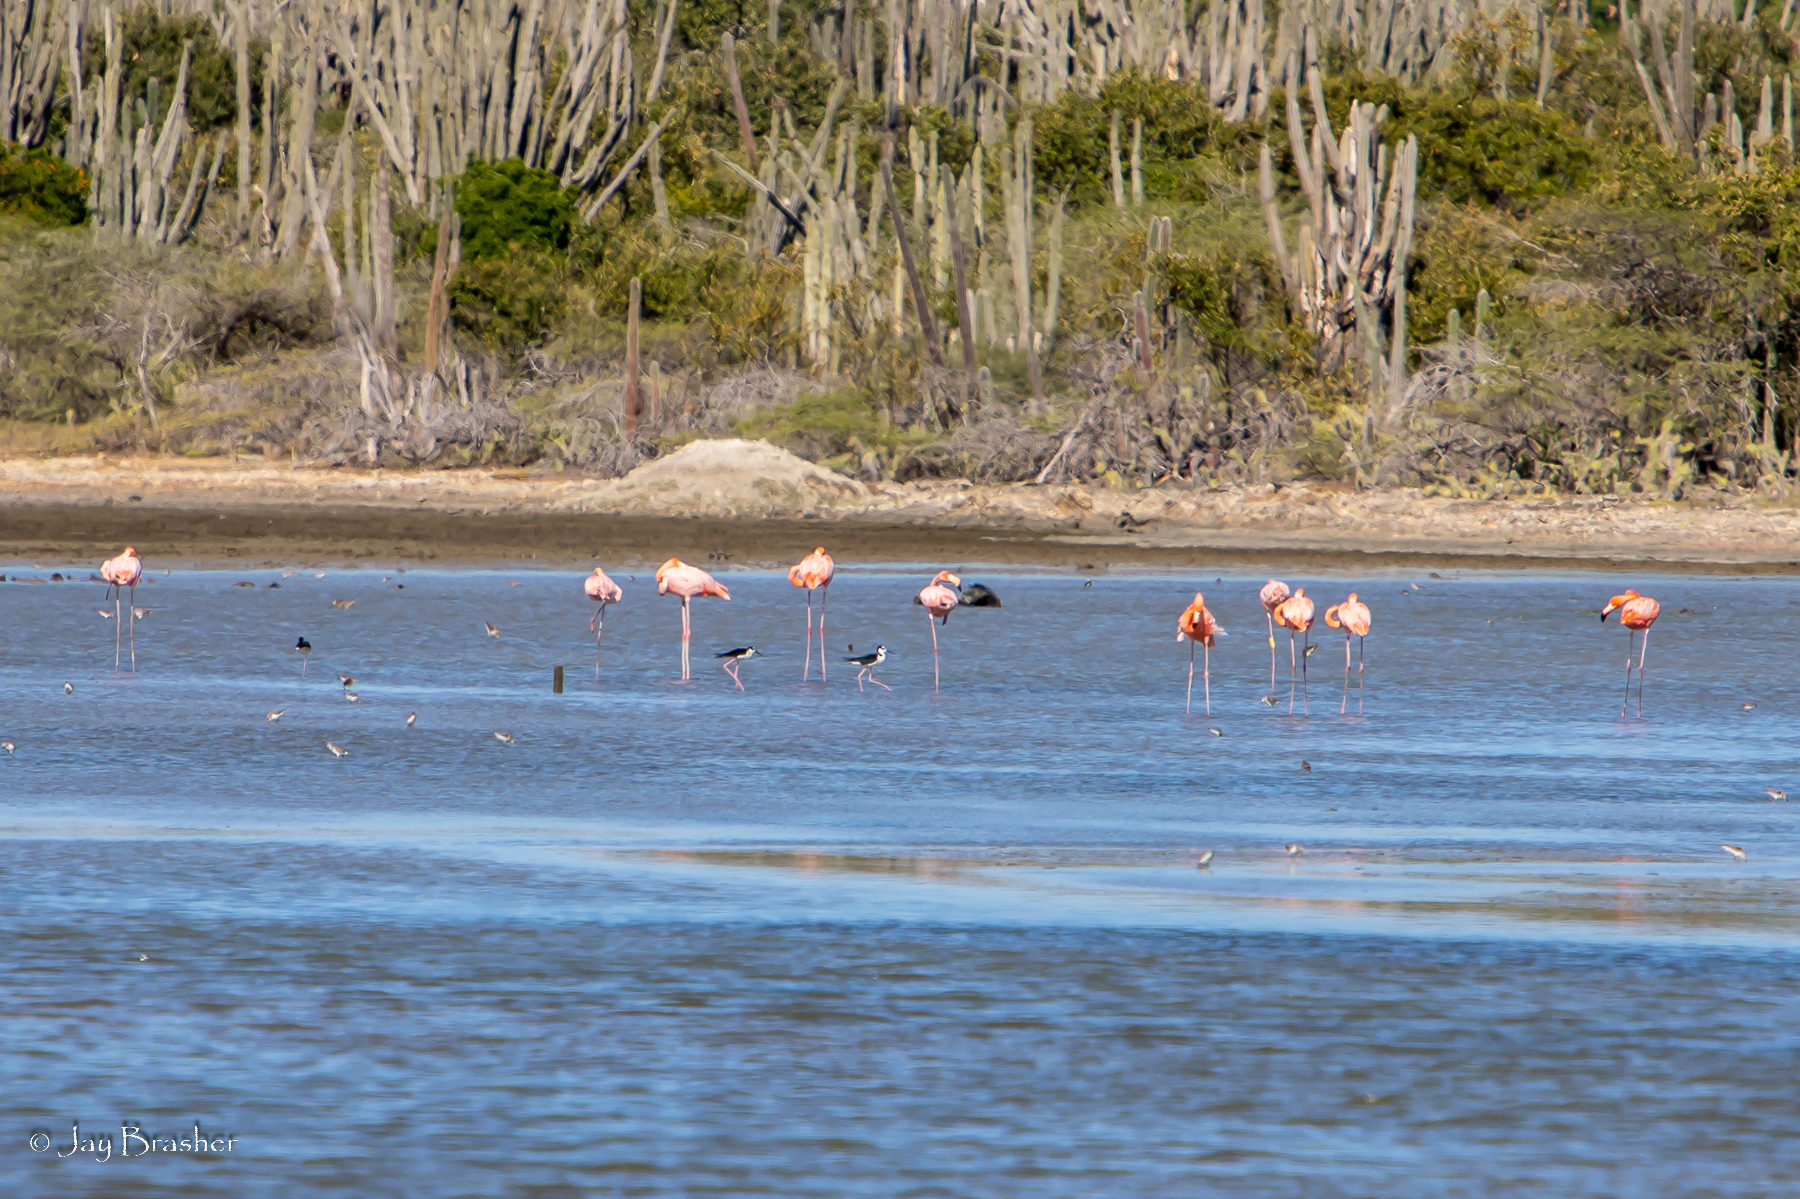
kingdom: Animalia
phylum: Chordata
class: Aves
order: Phoenicopteriformes
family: Phoenicopteridae
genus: Phoenicopterus
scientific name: Phoenicopterus ruber
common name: American flamingo
